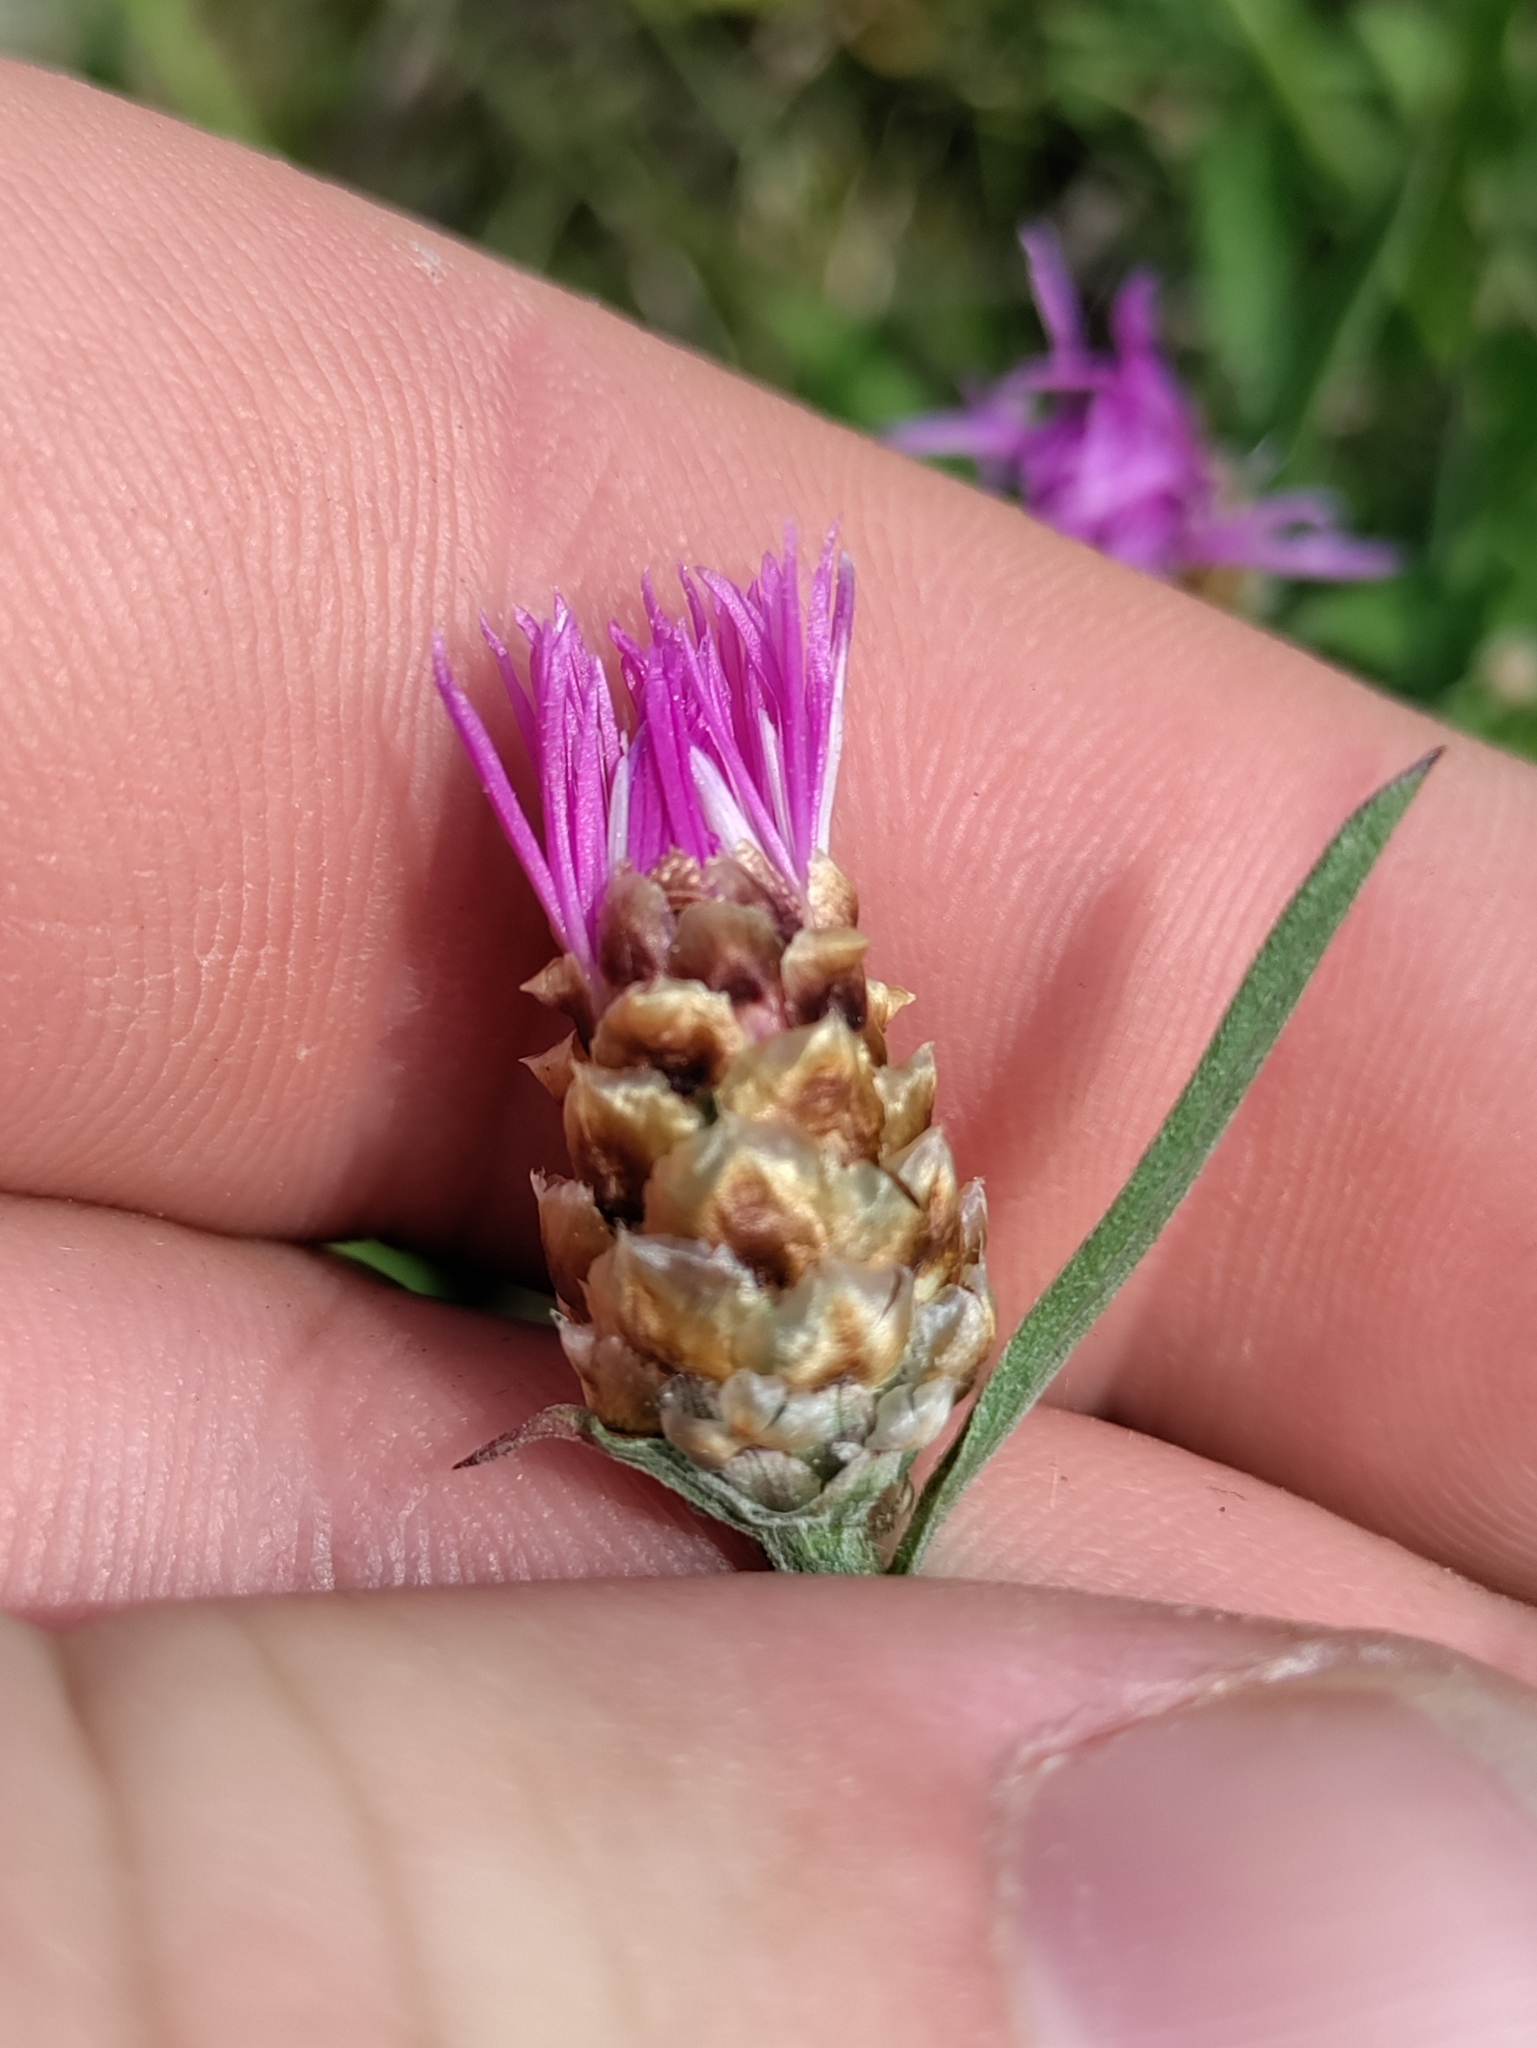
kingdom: Plantae
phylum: Tracheophyta
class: Magnoliopsida
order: Asterales
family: Asteraceae
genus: Centaurea
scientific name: Centaurea jacea
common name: Brown knapweed
